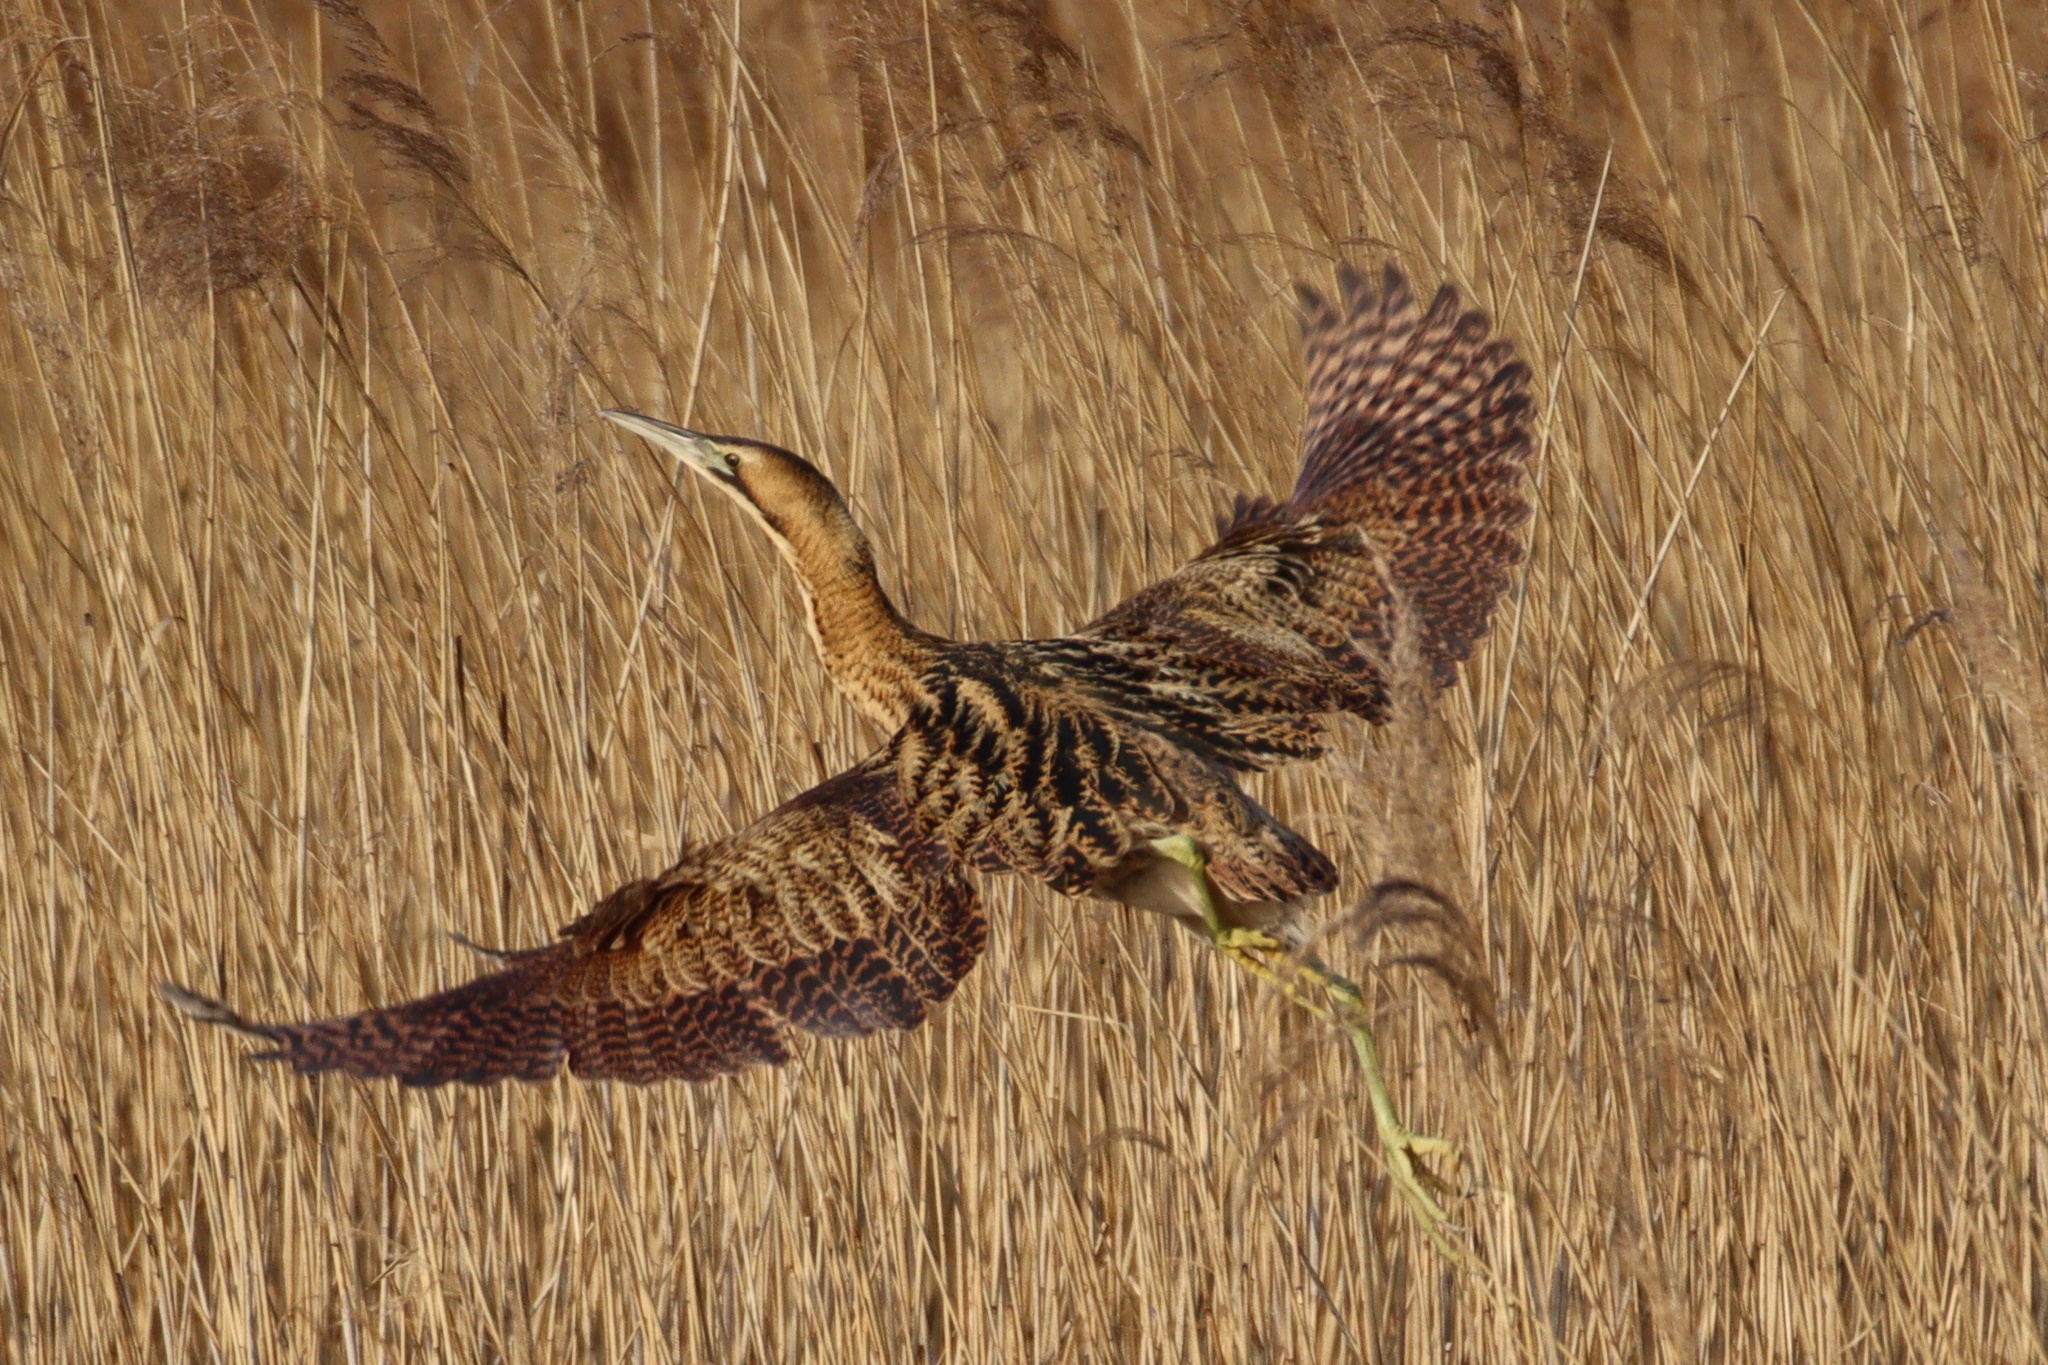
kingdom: Animalia
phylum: Chordata
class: Aves
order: Pelecaniformes
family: Ardeidae
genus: Botaurus
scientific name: Botaurus stellaris
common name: Eurasian bittern
